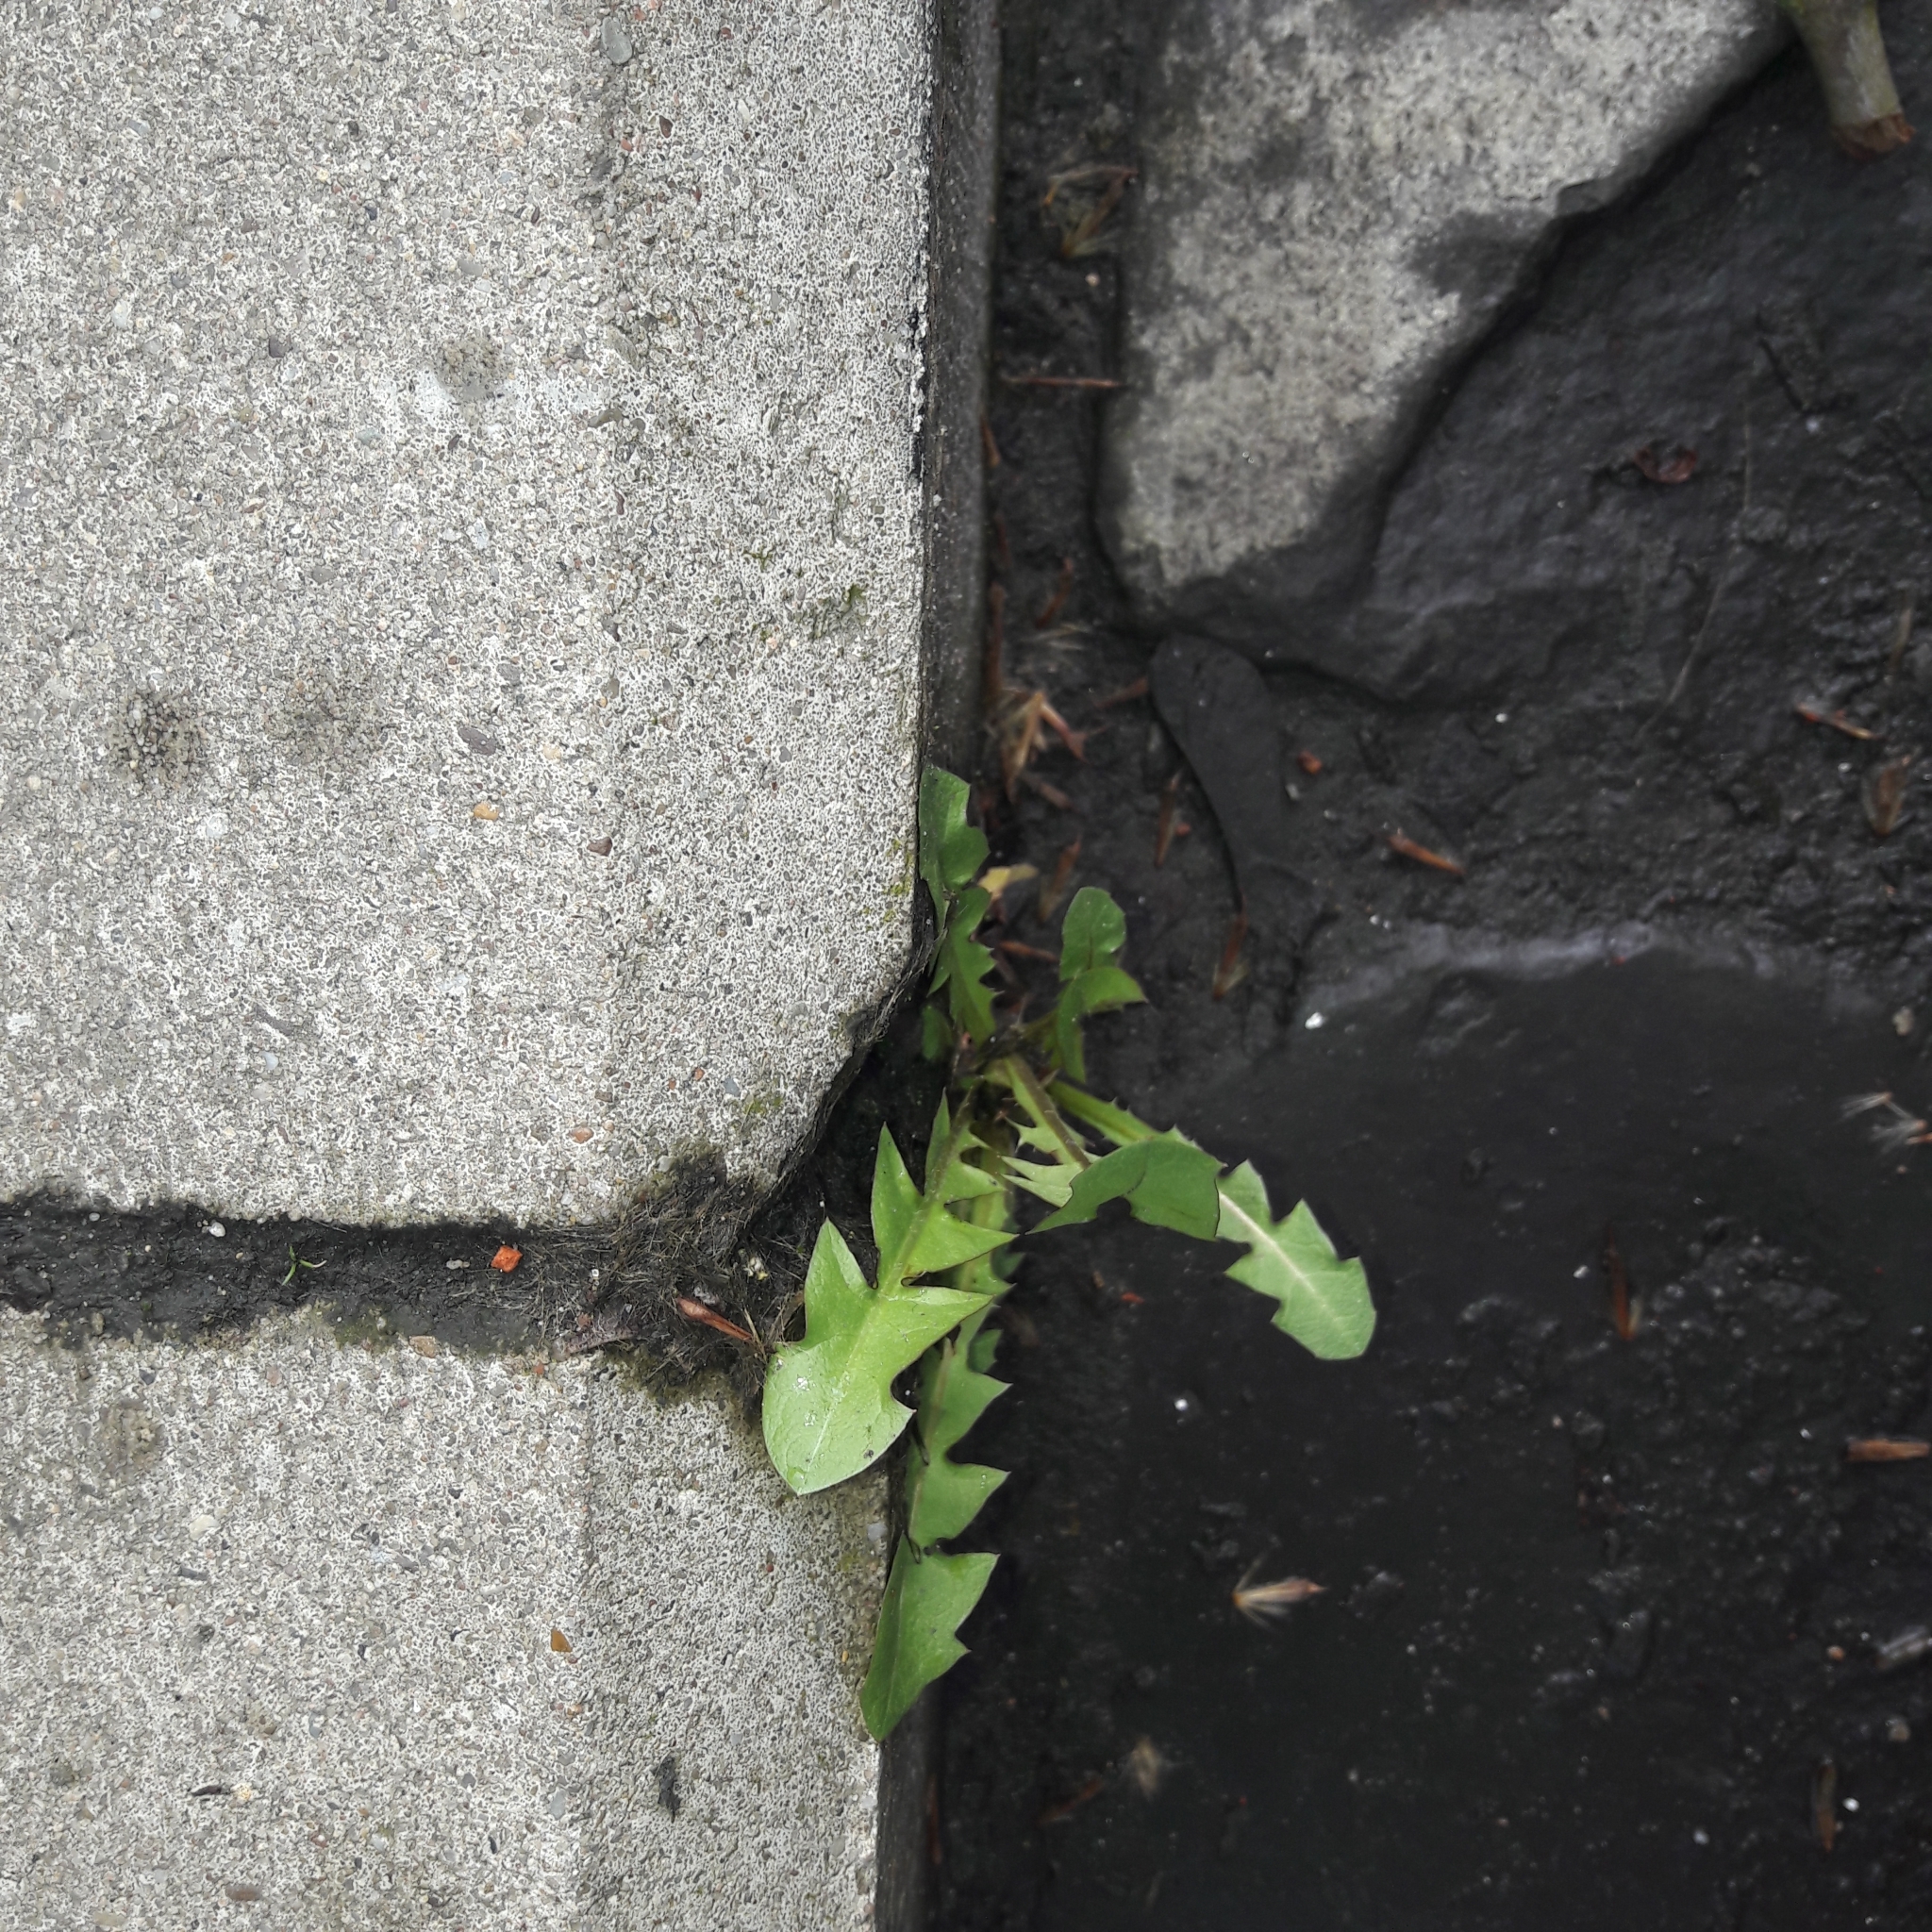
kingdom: Plantae
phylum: Tracheophyta
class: Magnoliopsida
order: Asterales
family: Asteraceae
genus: Taraxacum
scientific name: Taraxacum officinale
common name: Common dandelion
